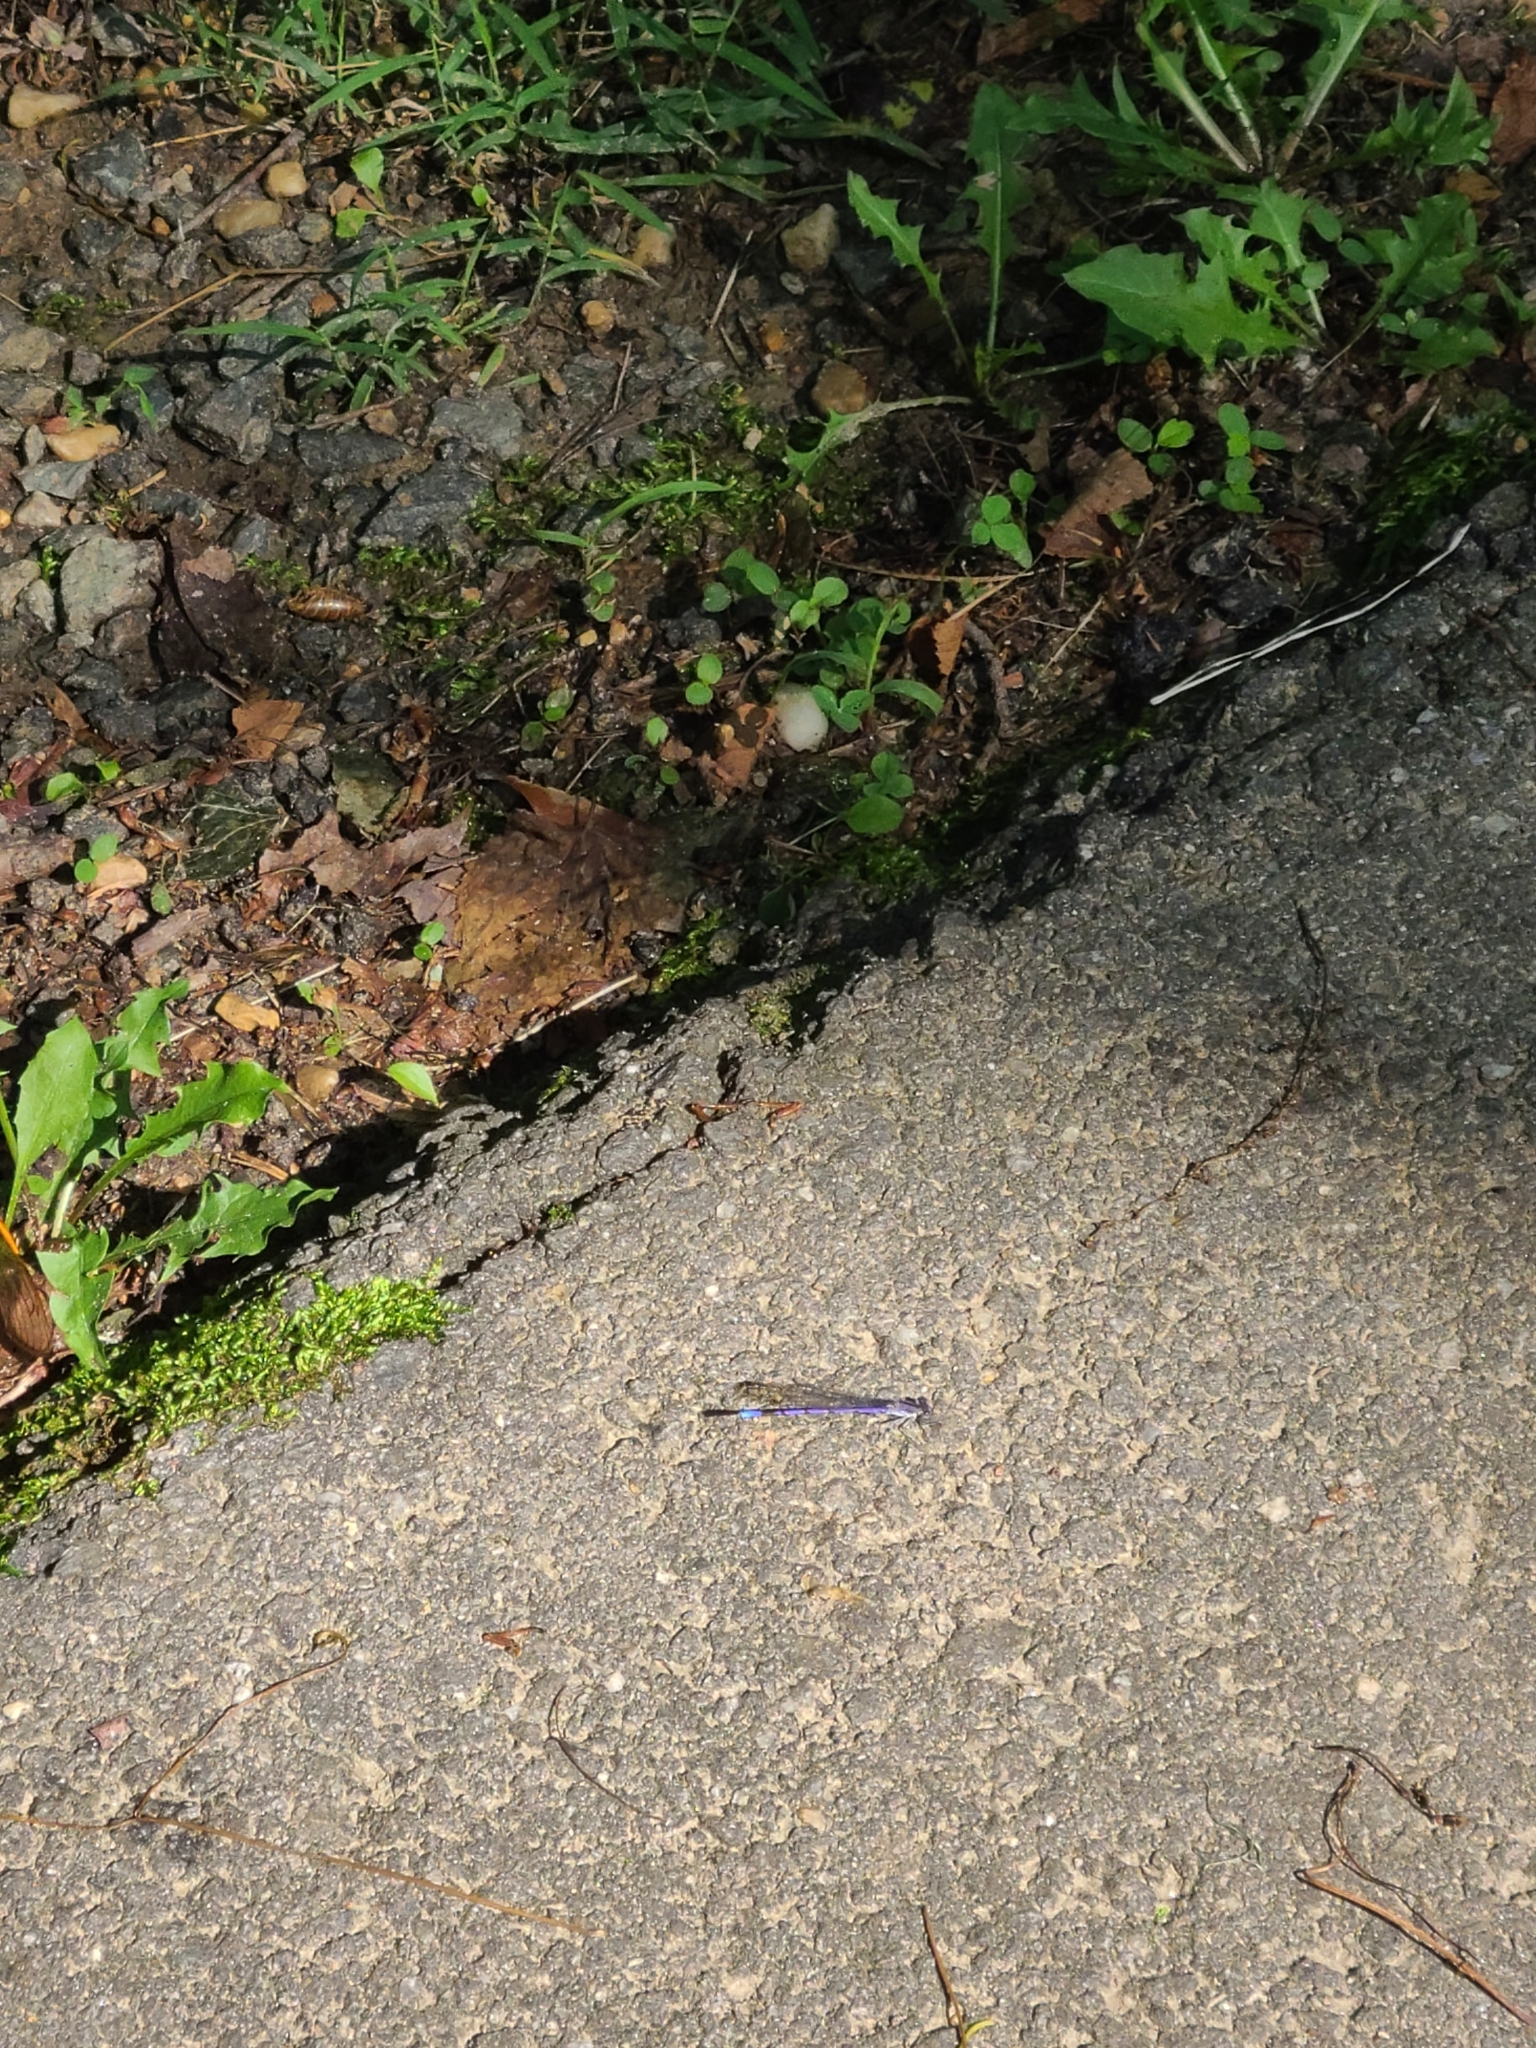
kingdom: Animalia
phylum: Arthropoda
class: Insecta
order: Odonata
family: Coenagrionidae
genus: Argia
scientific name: Argia fumipennis
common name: Variable dancer
